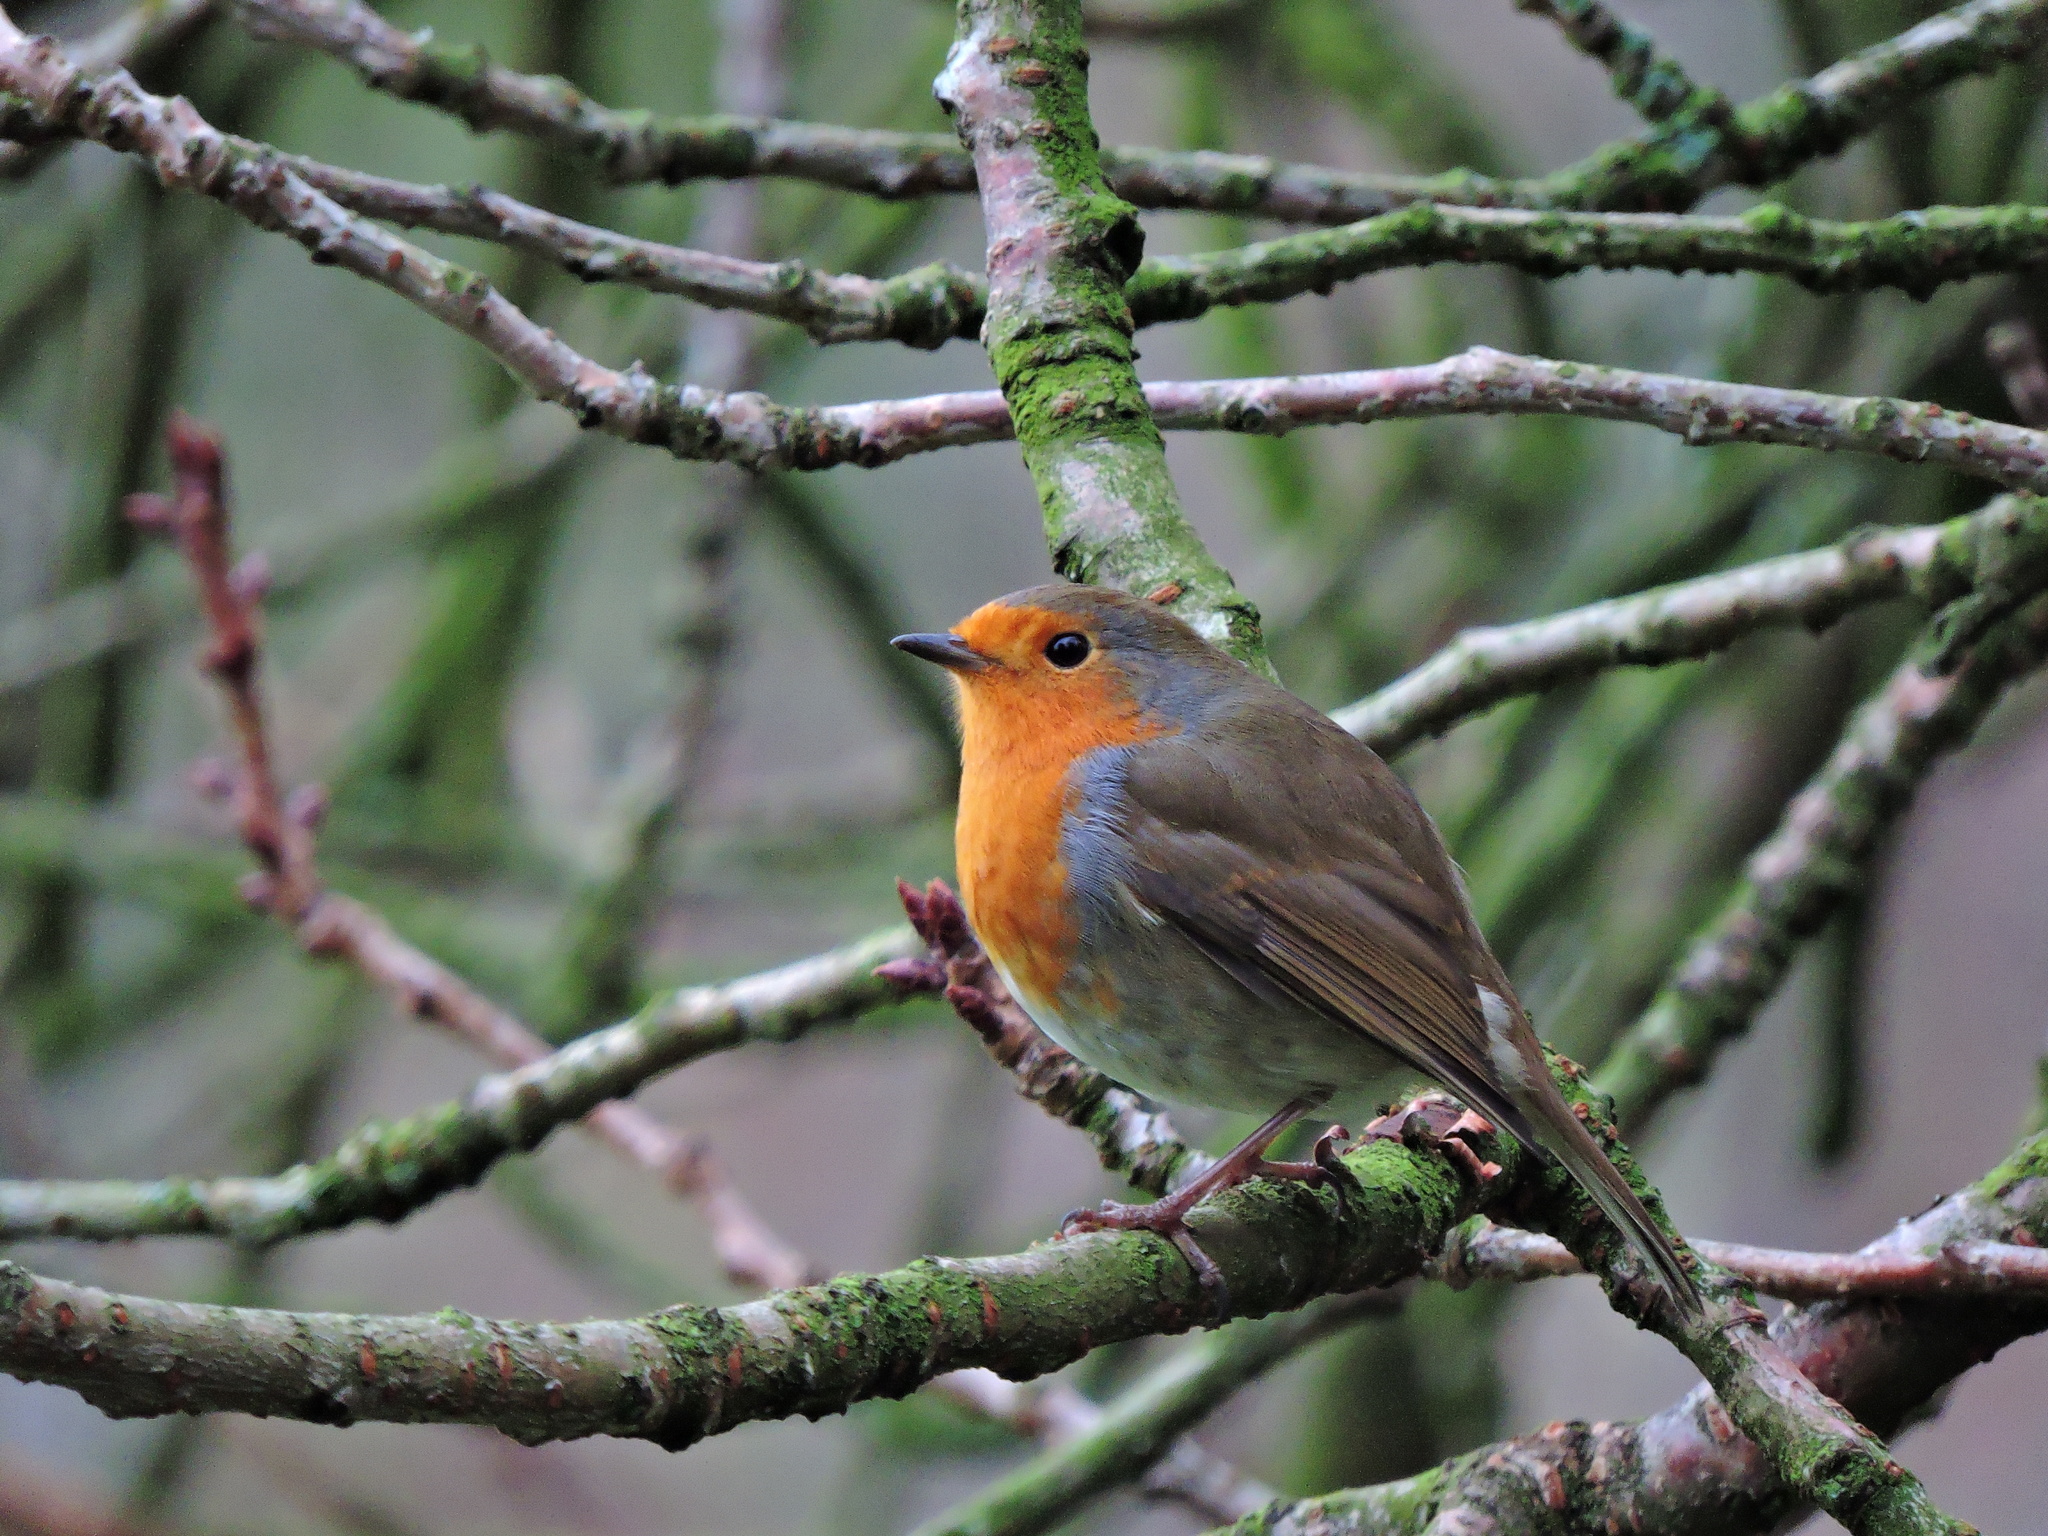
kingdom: Animalia
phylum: Chordata
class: Aves
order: Passeriformes
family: Muscicapidae
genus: Erithacus
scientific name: Erithacus rubecula
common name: European robin
